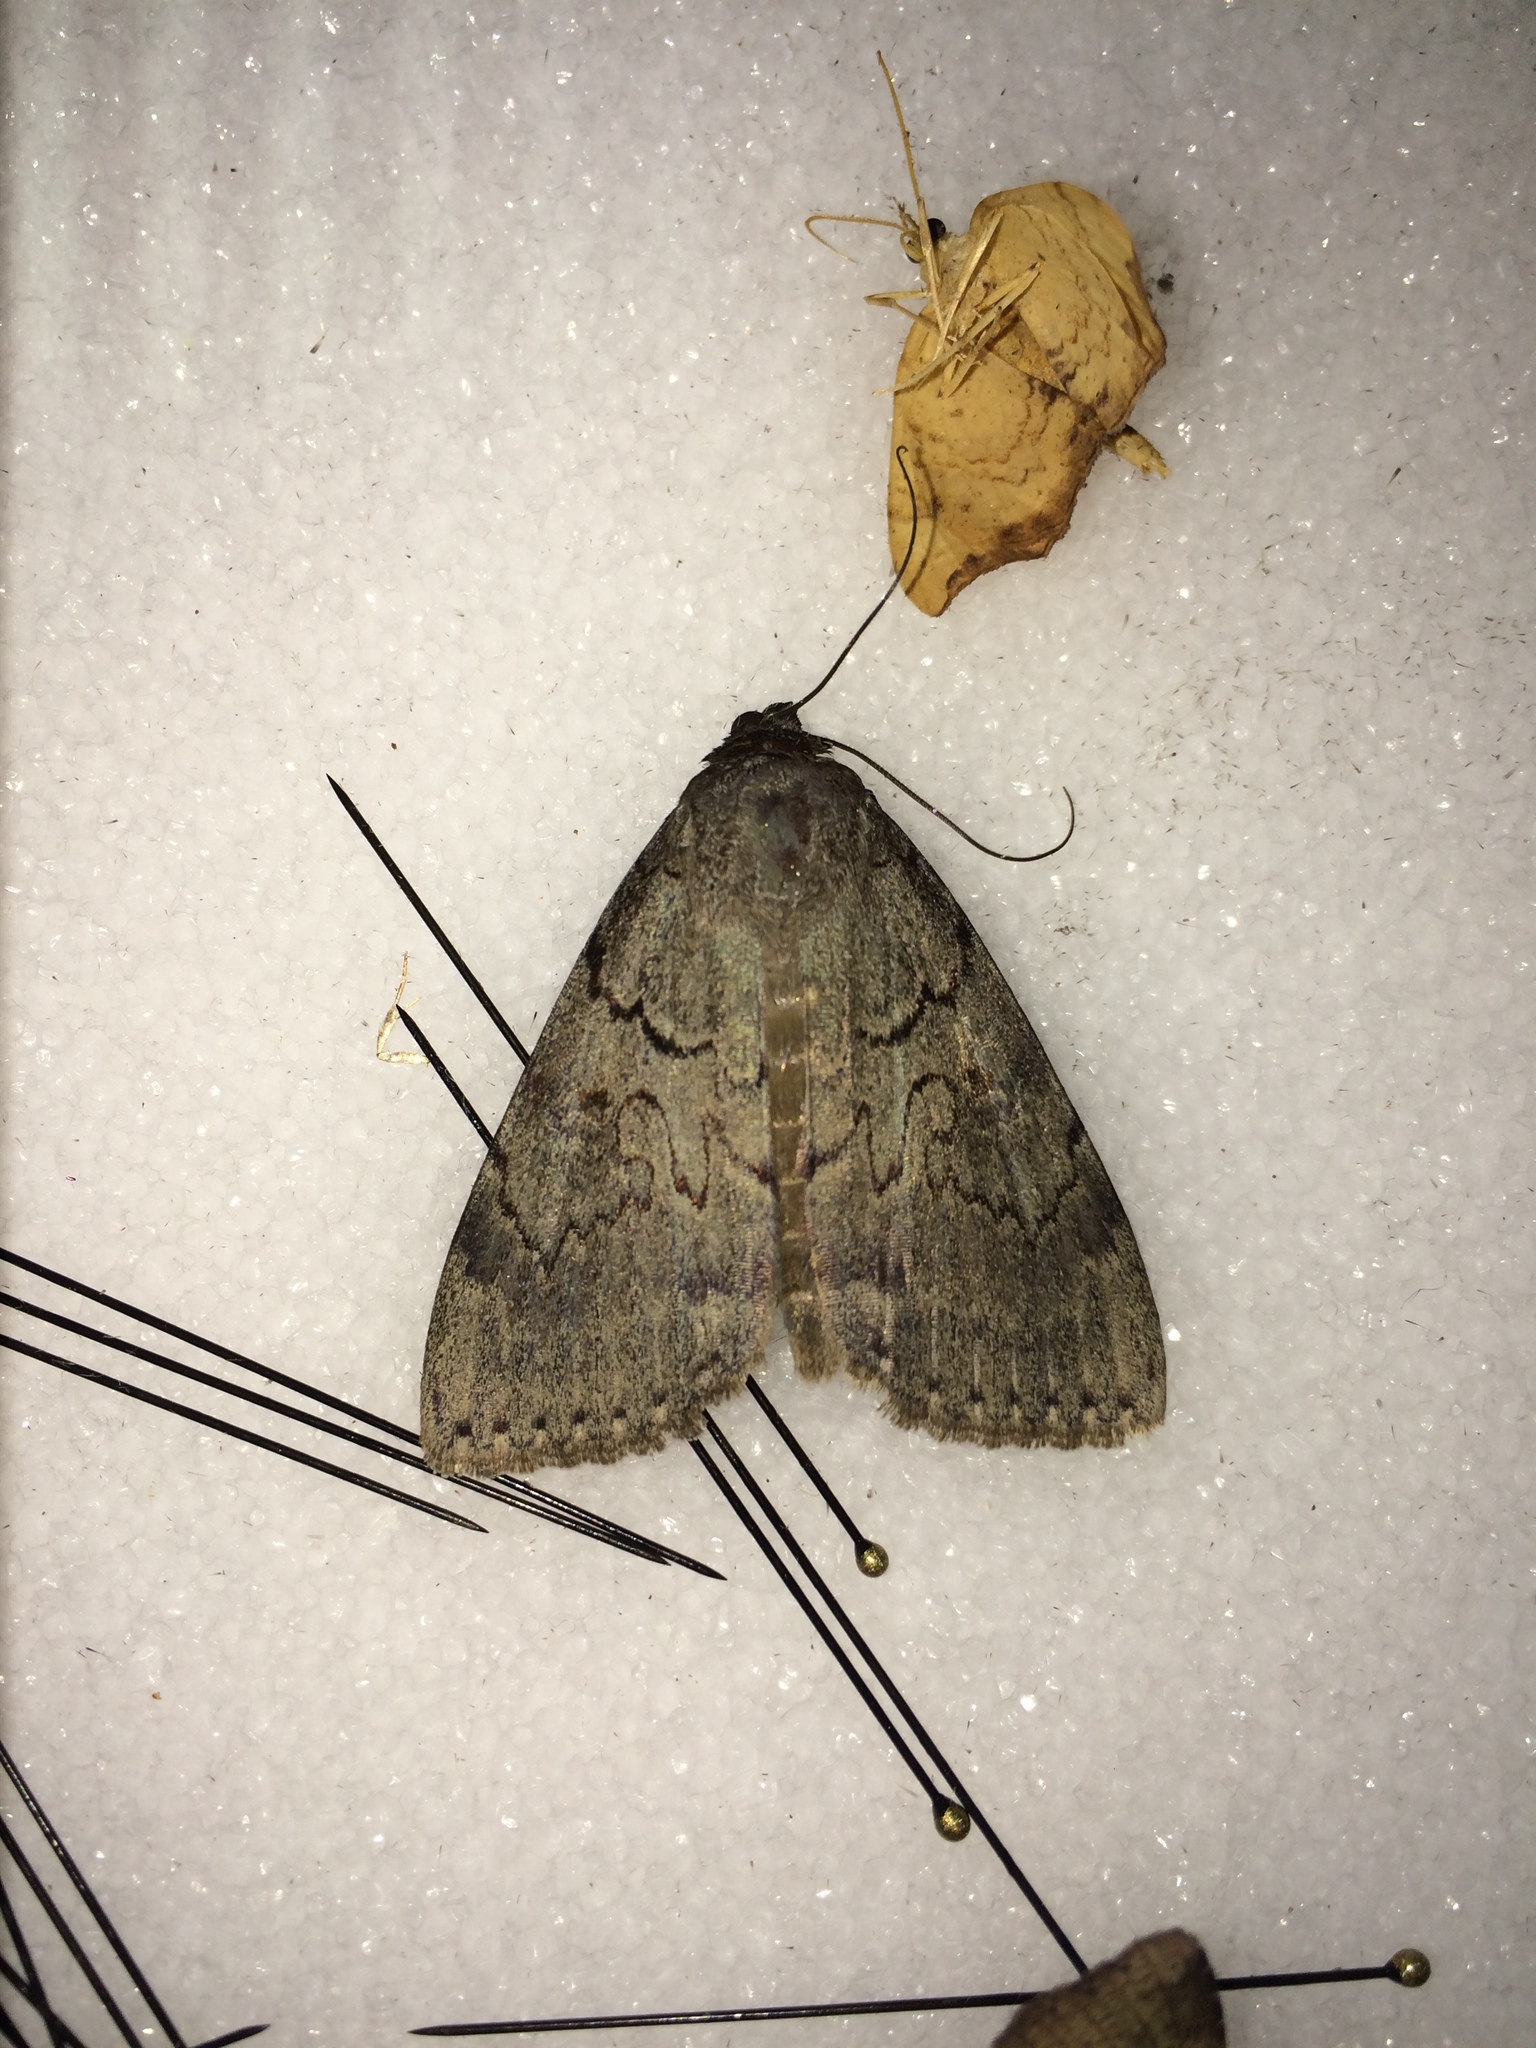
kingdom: Animalia
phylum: Arthropoda
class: Insecta
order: Lepidoptera
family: Erebidae
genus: Catocala
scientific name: Catocala serena
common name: Serene underwing
